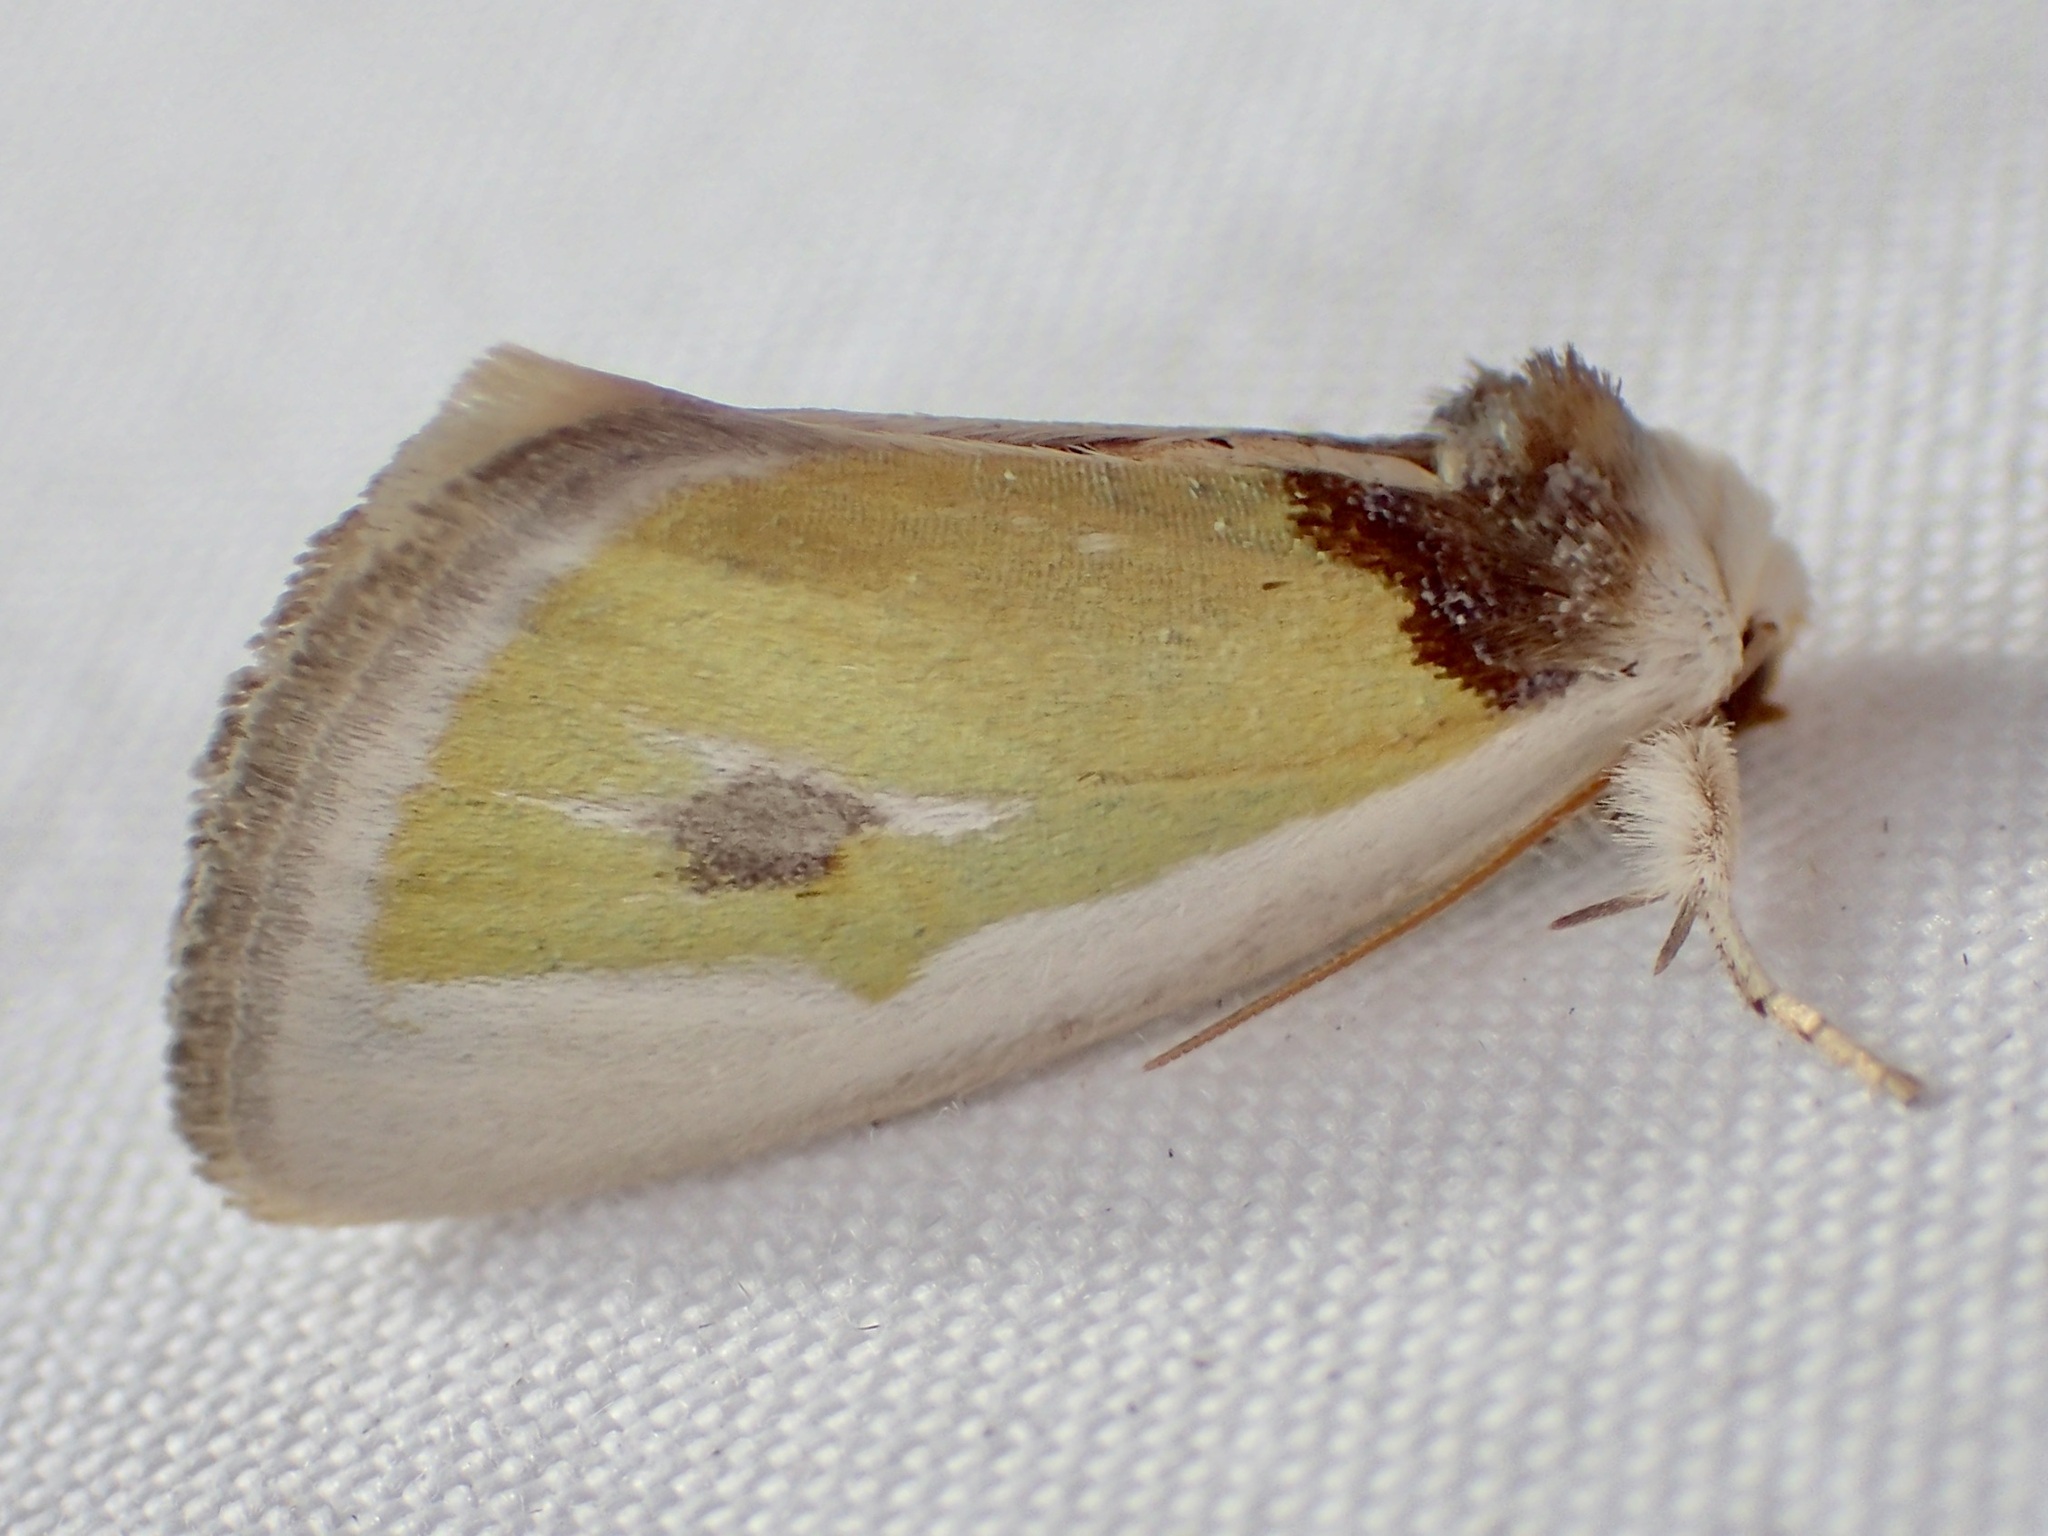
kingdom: Animalia
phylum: Arthropoda
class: Insecta
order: Lepidoptera
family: Noctuidae
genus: Neumoegenia
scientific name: Neumoegenia poetica
